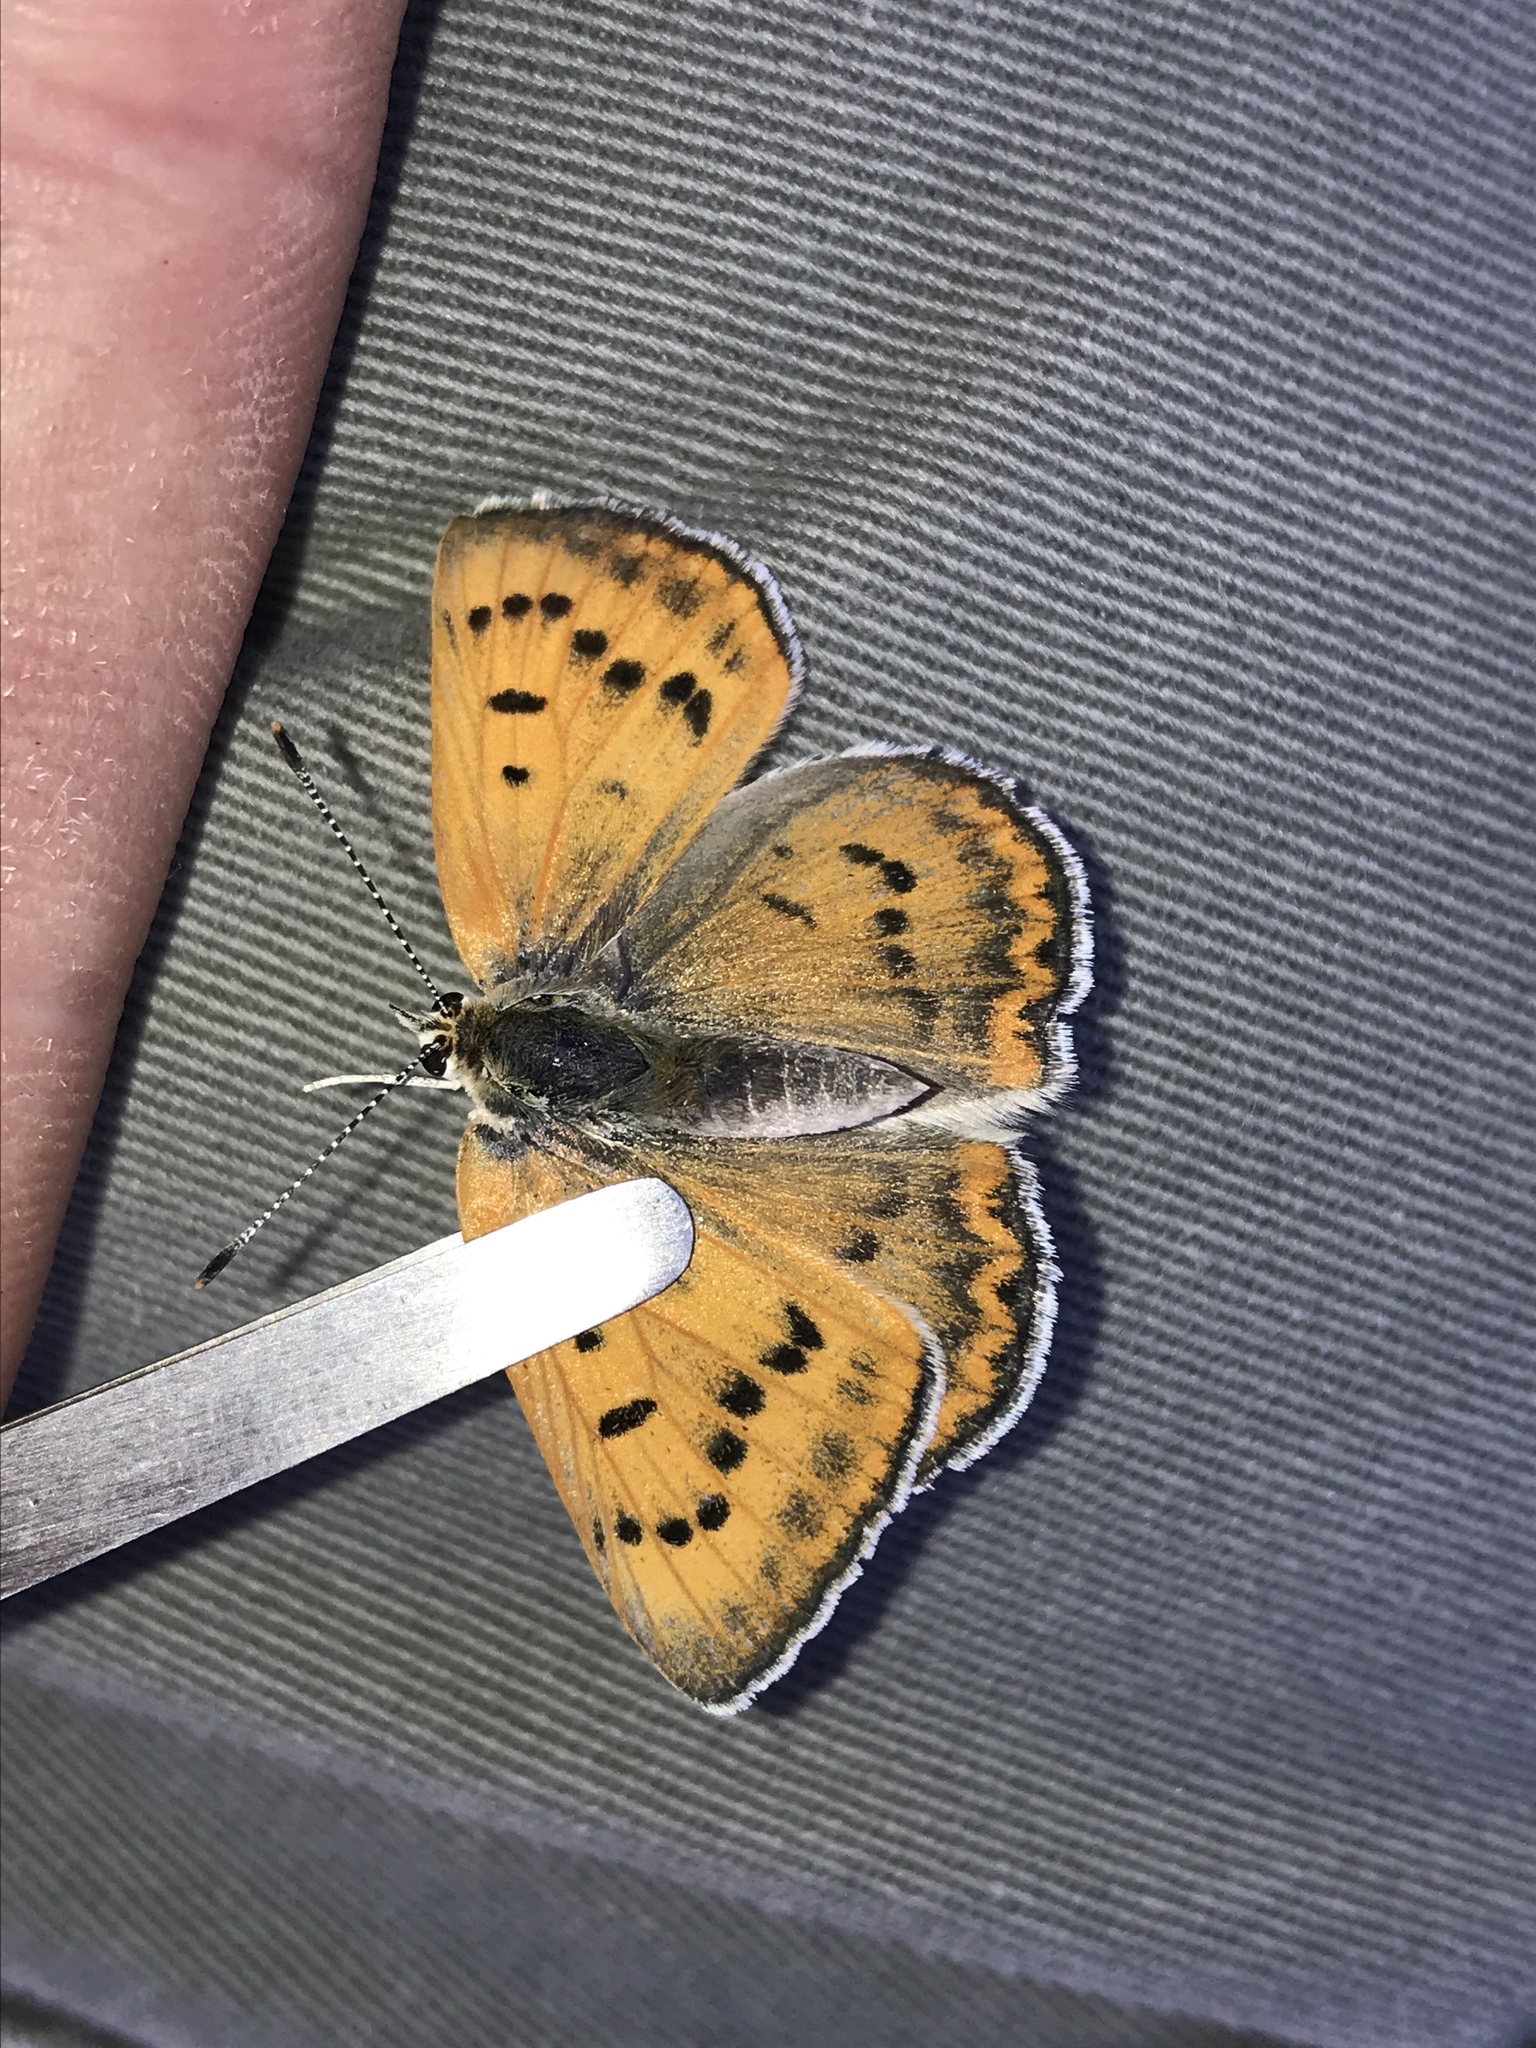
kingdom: Animalia
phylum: Arthropoda
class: Insecta
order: Lepidoptera
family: Lycaenidae
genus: Tharsalea
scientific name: Tharsalea rubidus
